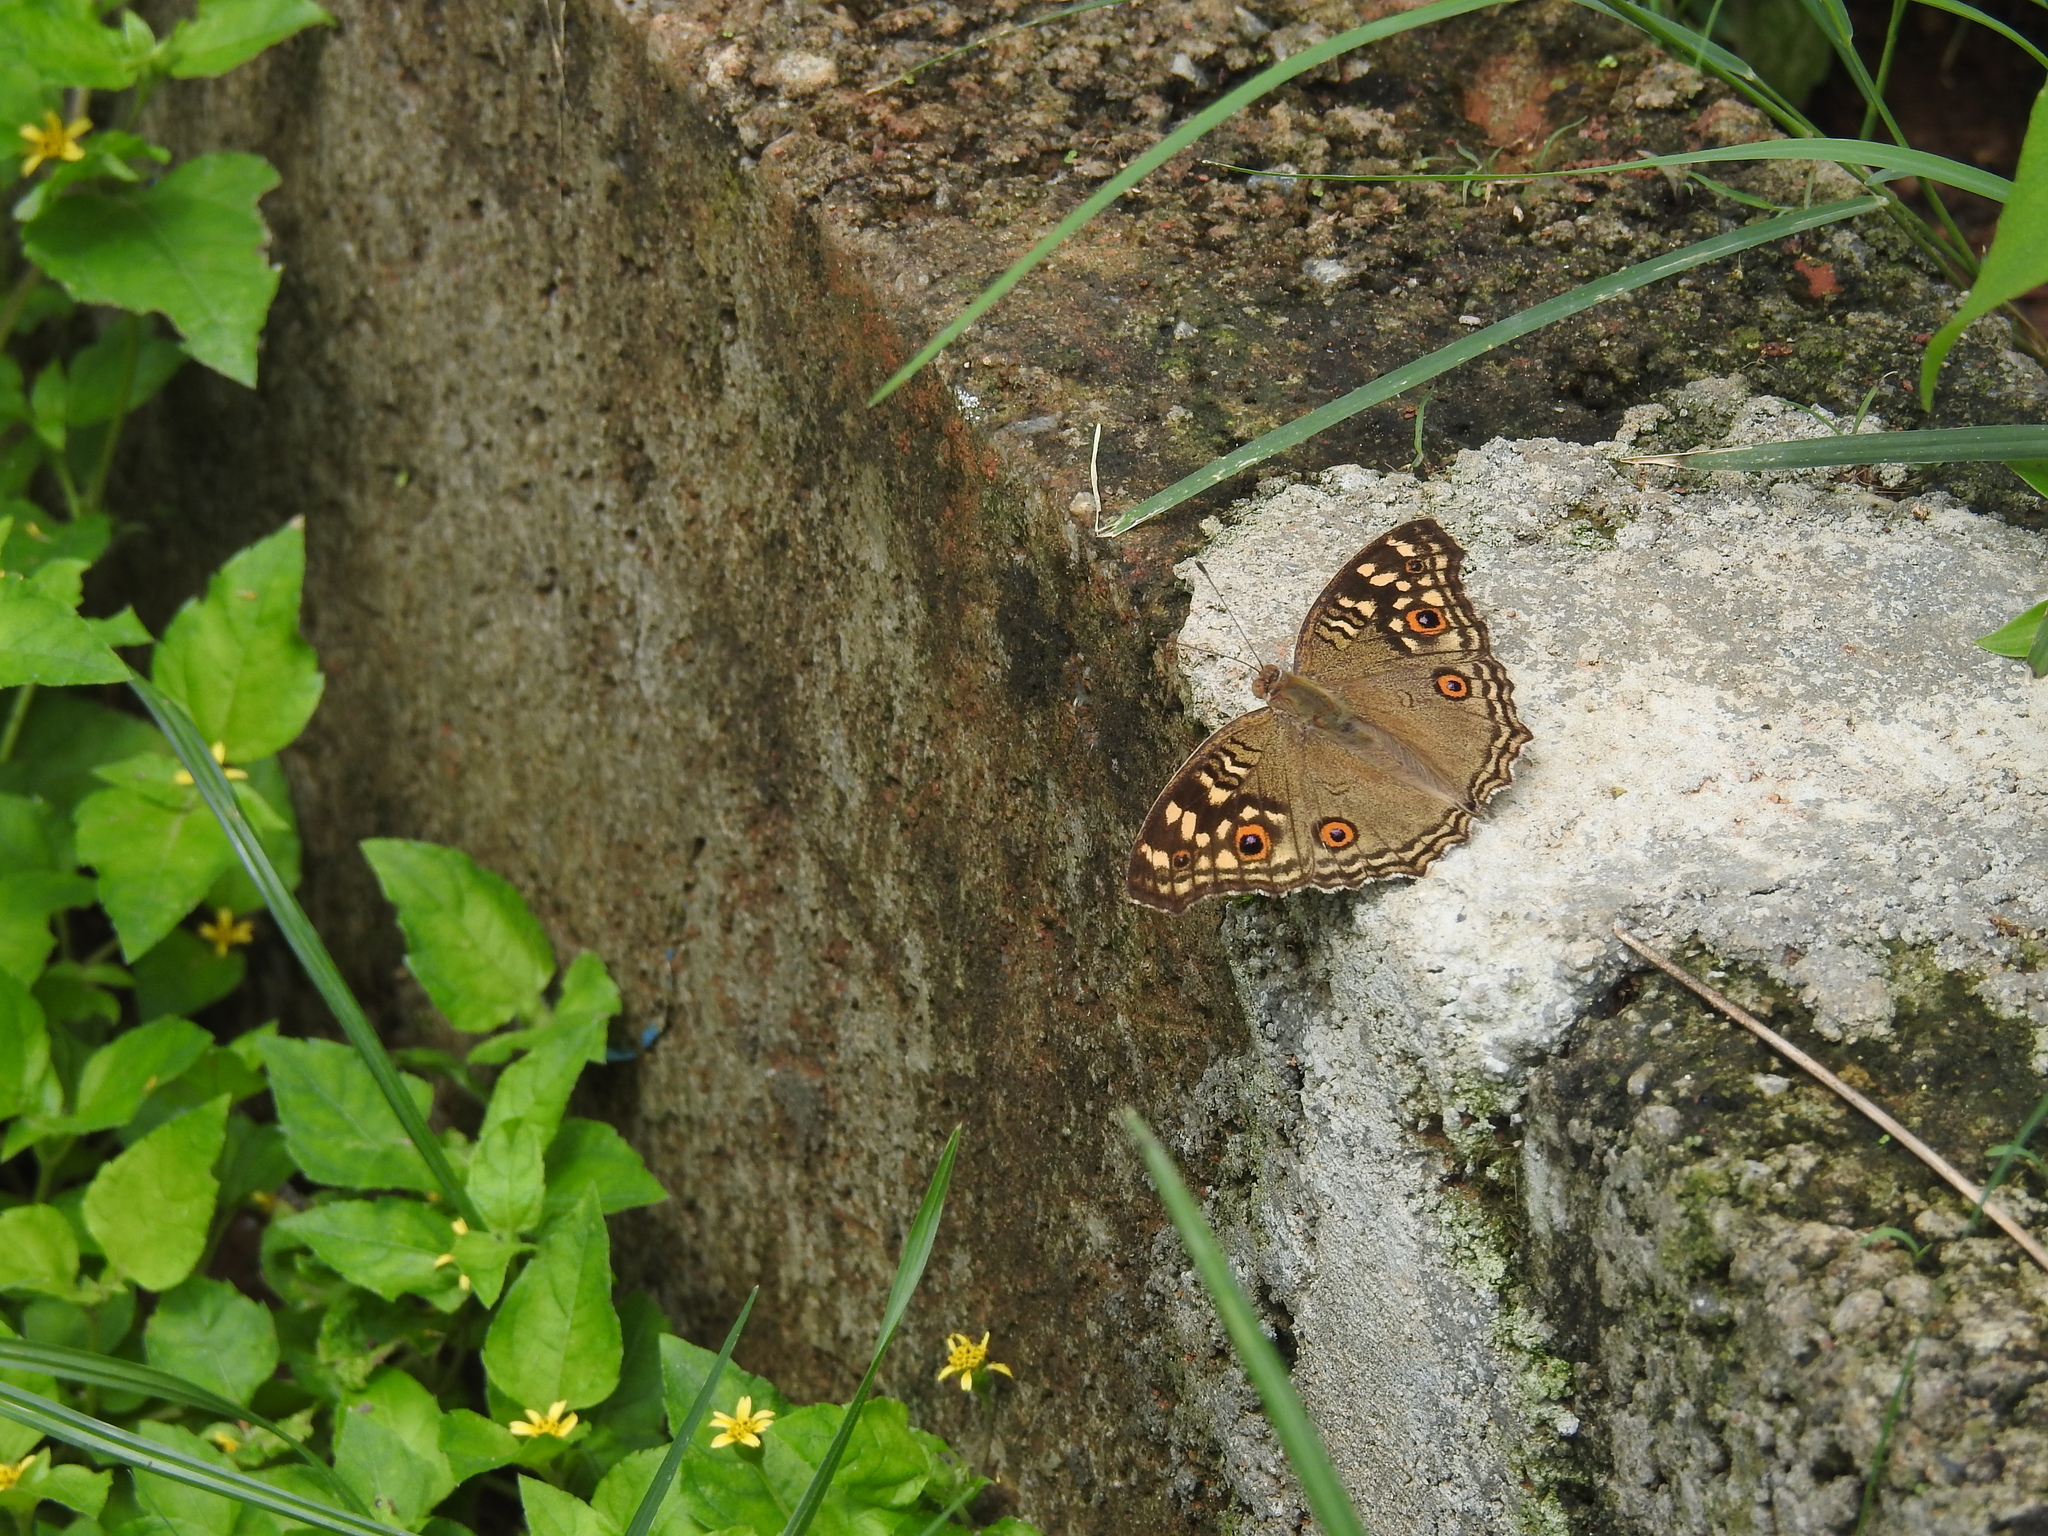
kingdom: Animalia
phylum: Arthropoda
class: Insecta
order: Lepidoptera
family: Nymphalidae
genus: Junonia
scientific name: Junonia lemonias
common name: Lemon pansy
